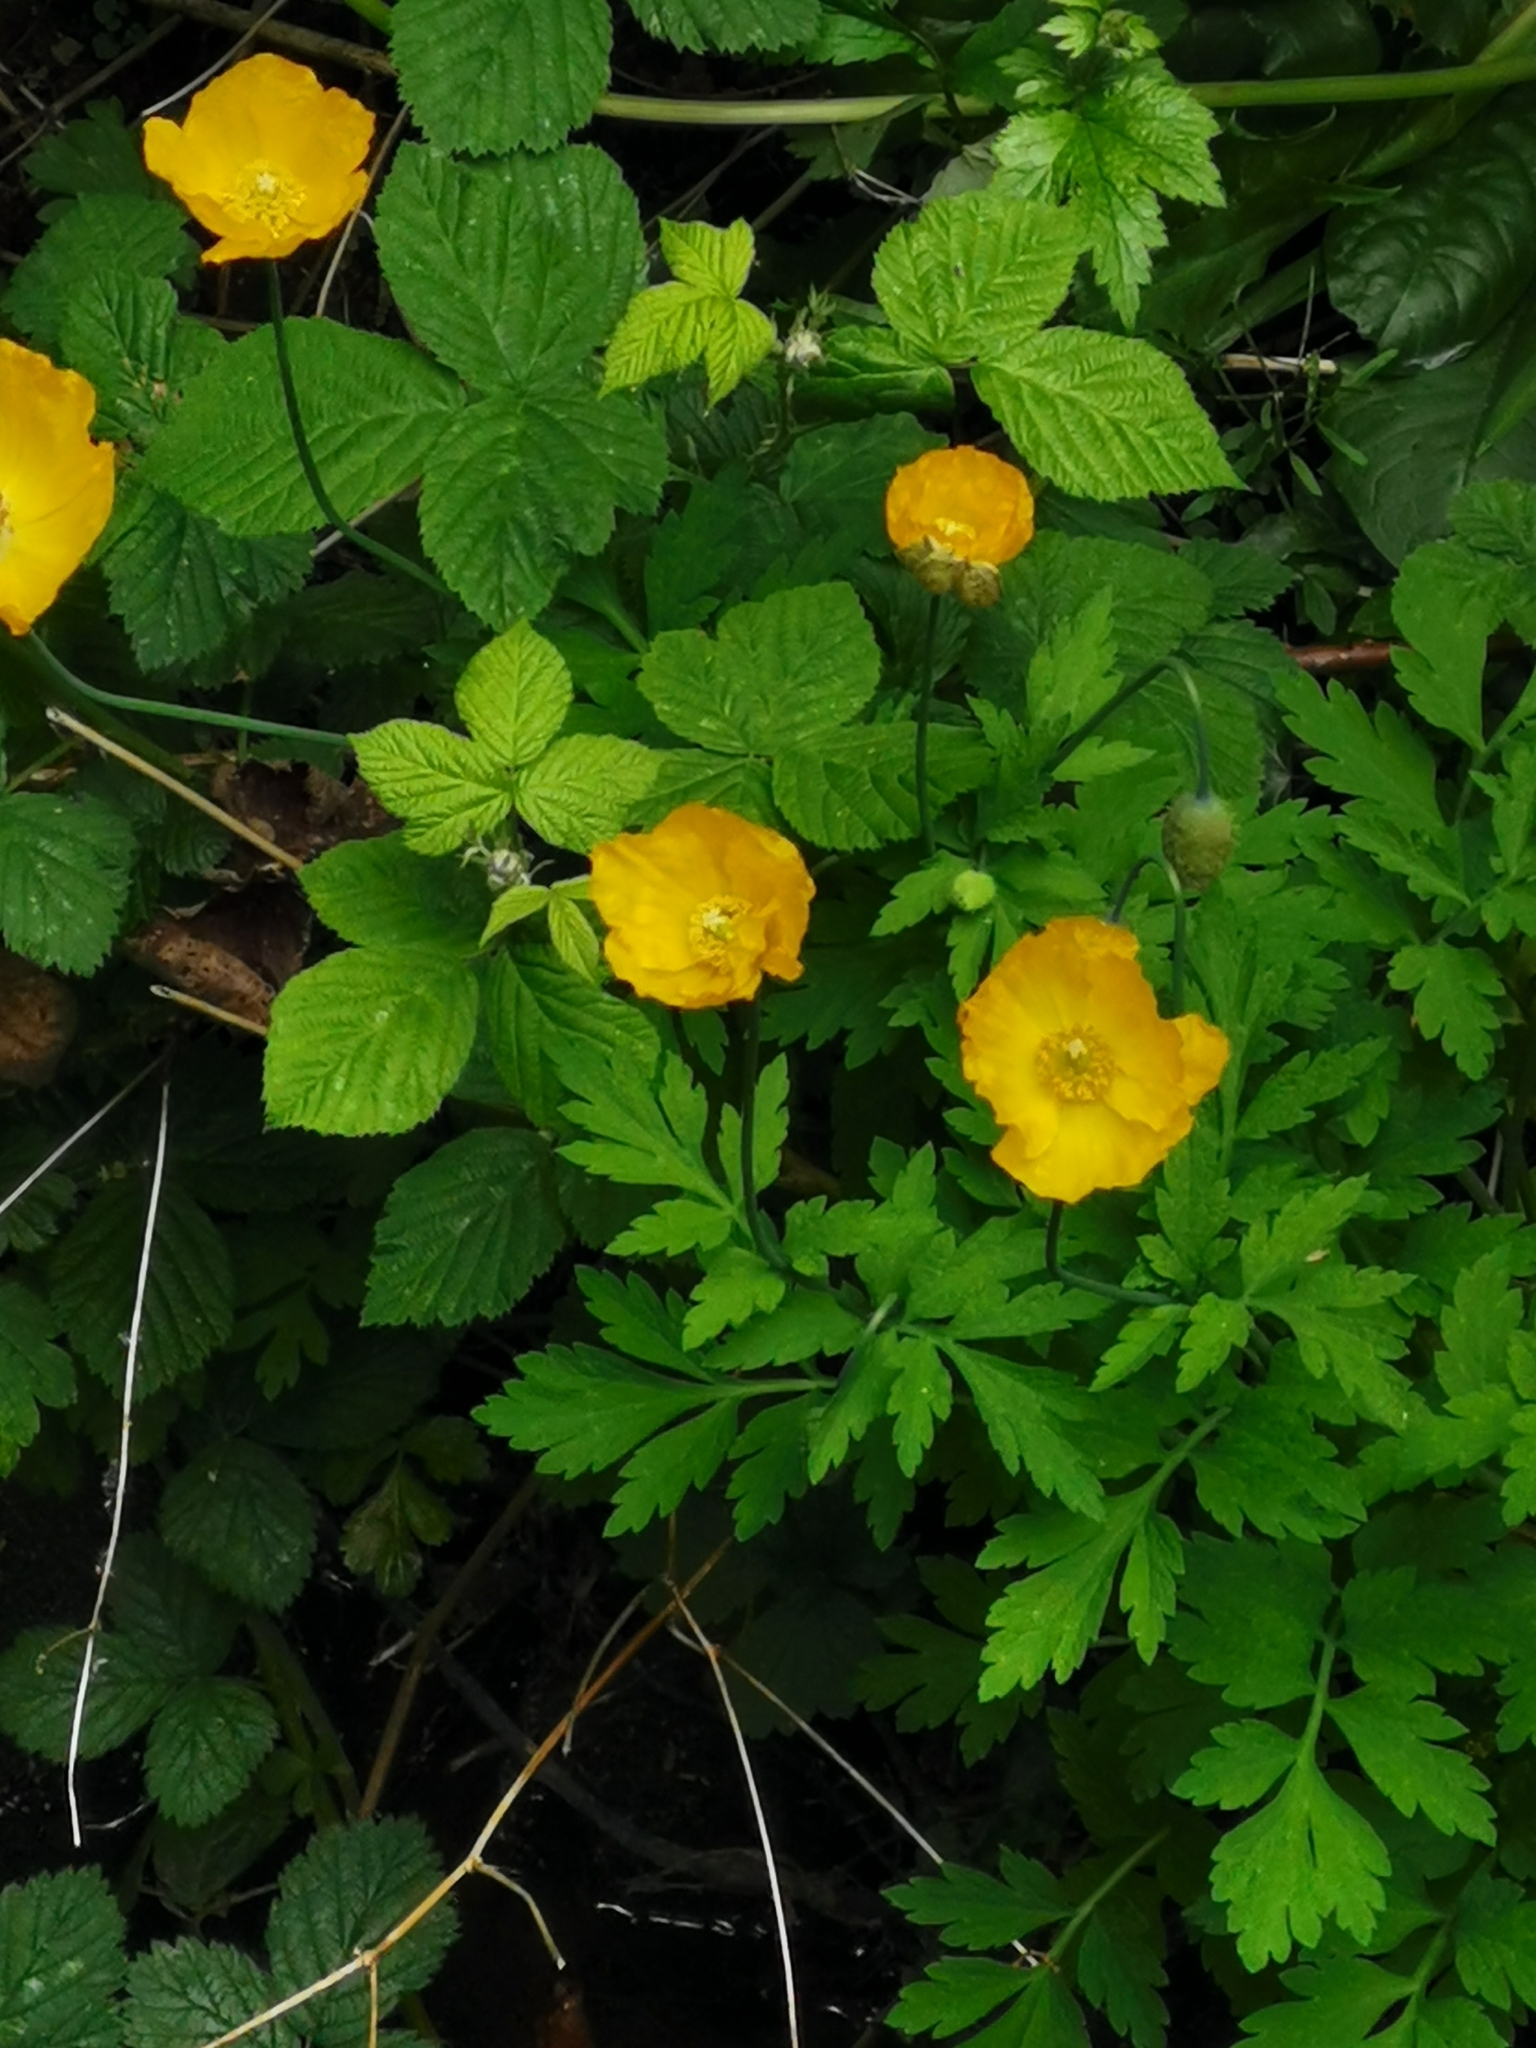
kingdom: Plantae
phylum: Tracheophyta
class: Magnoliopsida
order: Ranunculales
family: Papaveraceae
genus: Papaver
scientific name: Papaver cambricum
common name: Poppy
